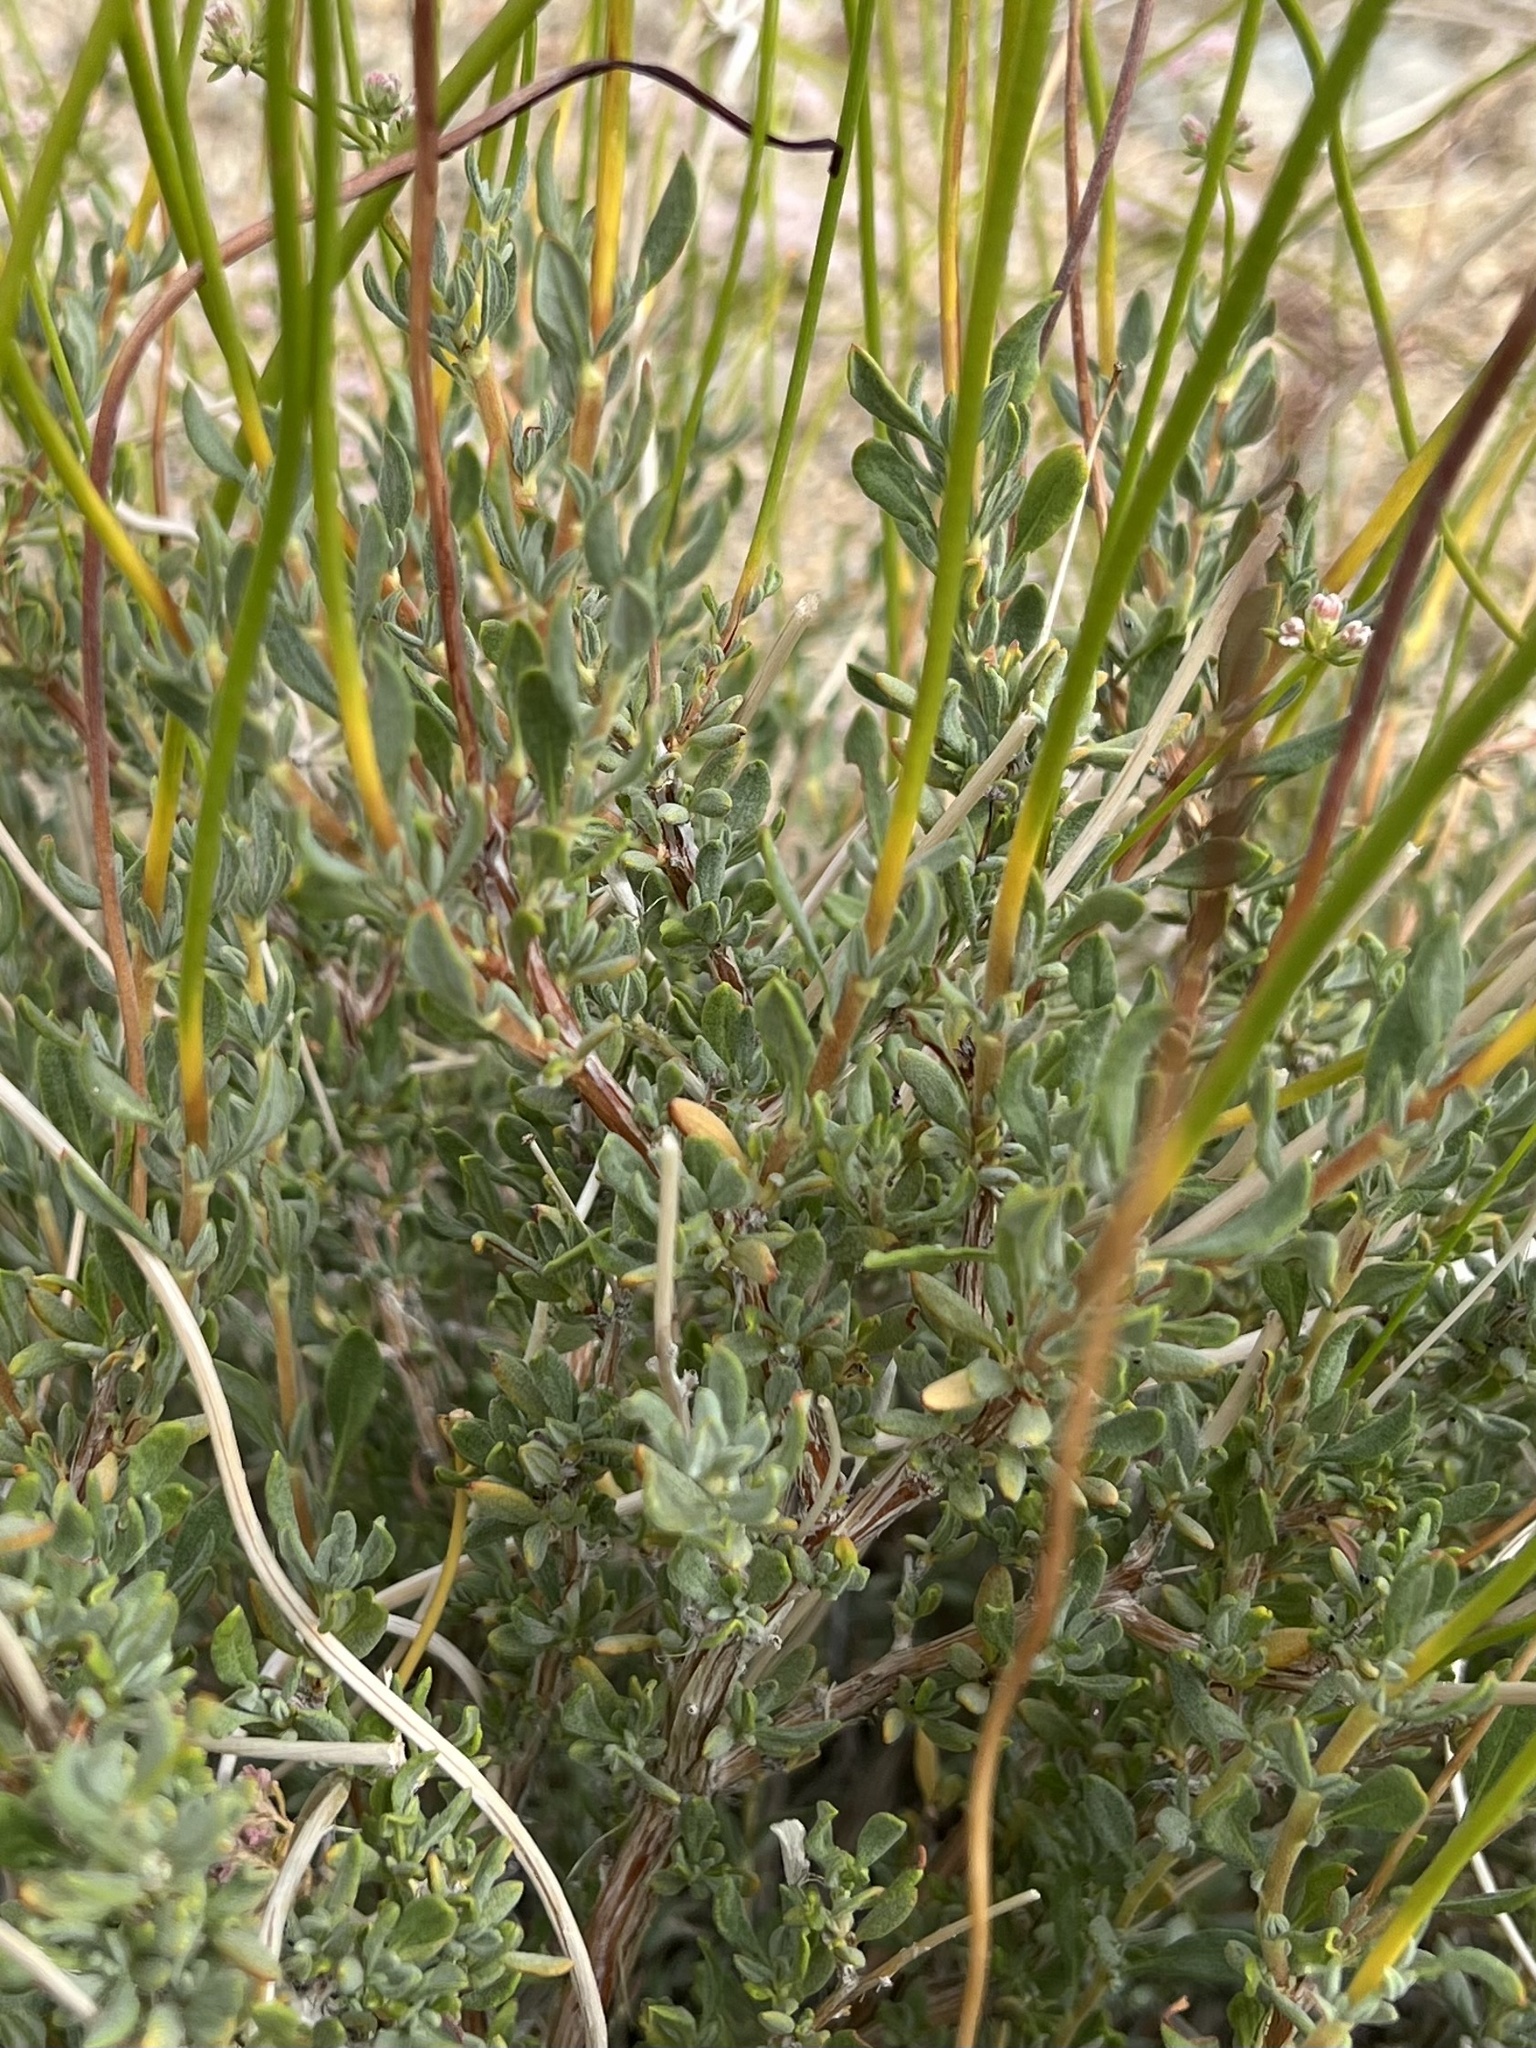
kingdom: Plantae
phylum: Tracheophyta
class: Magnoliopsida
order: Caryophyllales
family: Polygonaceae
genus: Eriogonum
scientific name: Eriogonum fasciculatum
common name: California wild buckwheat
